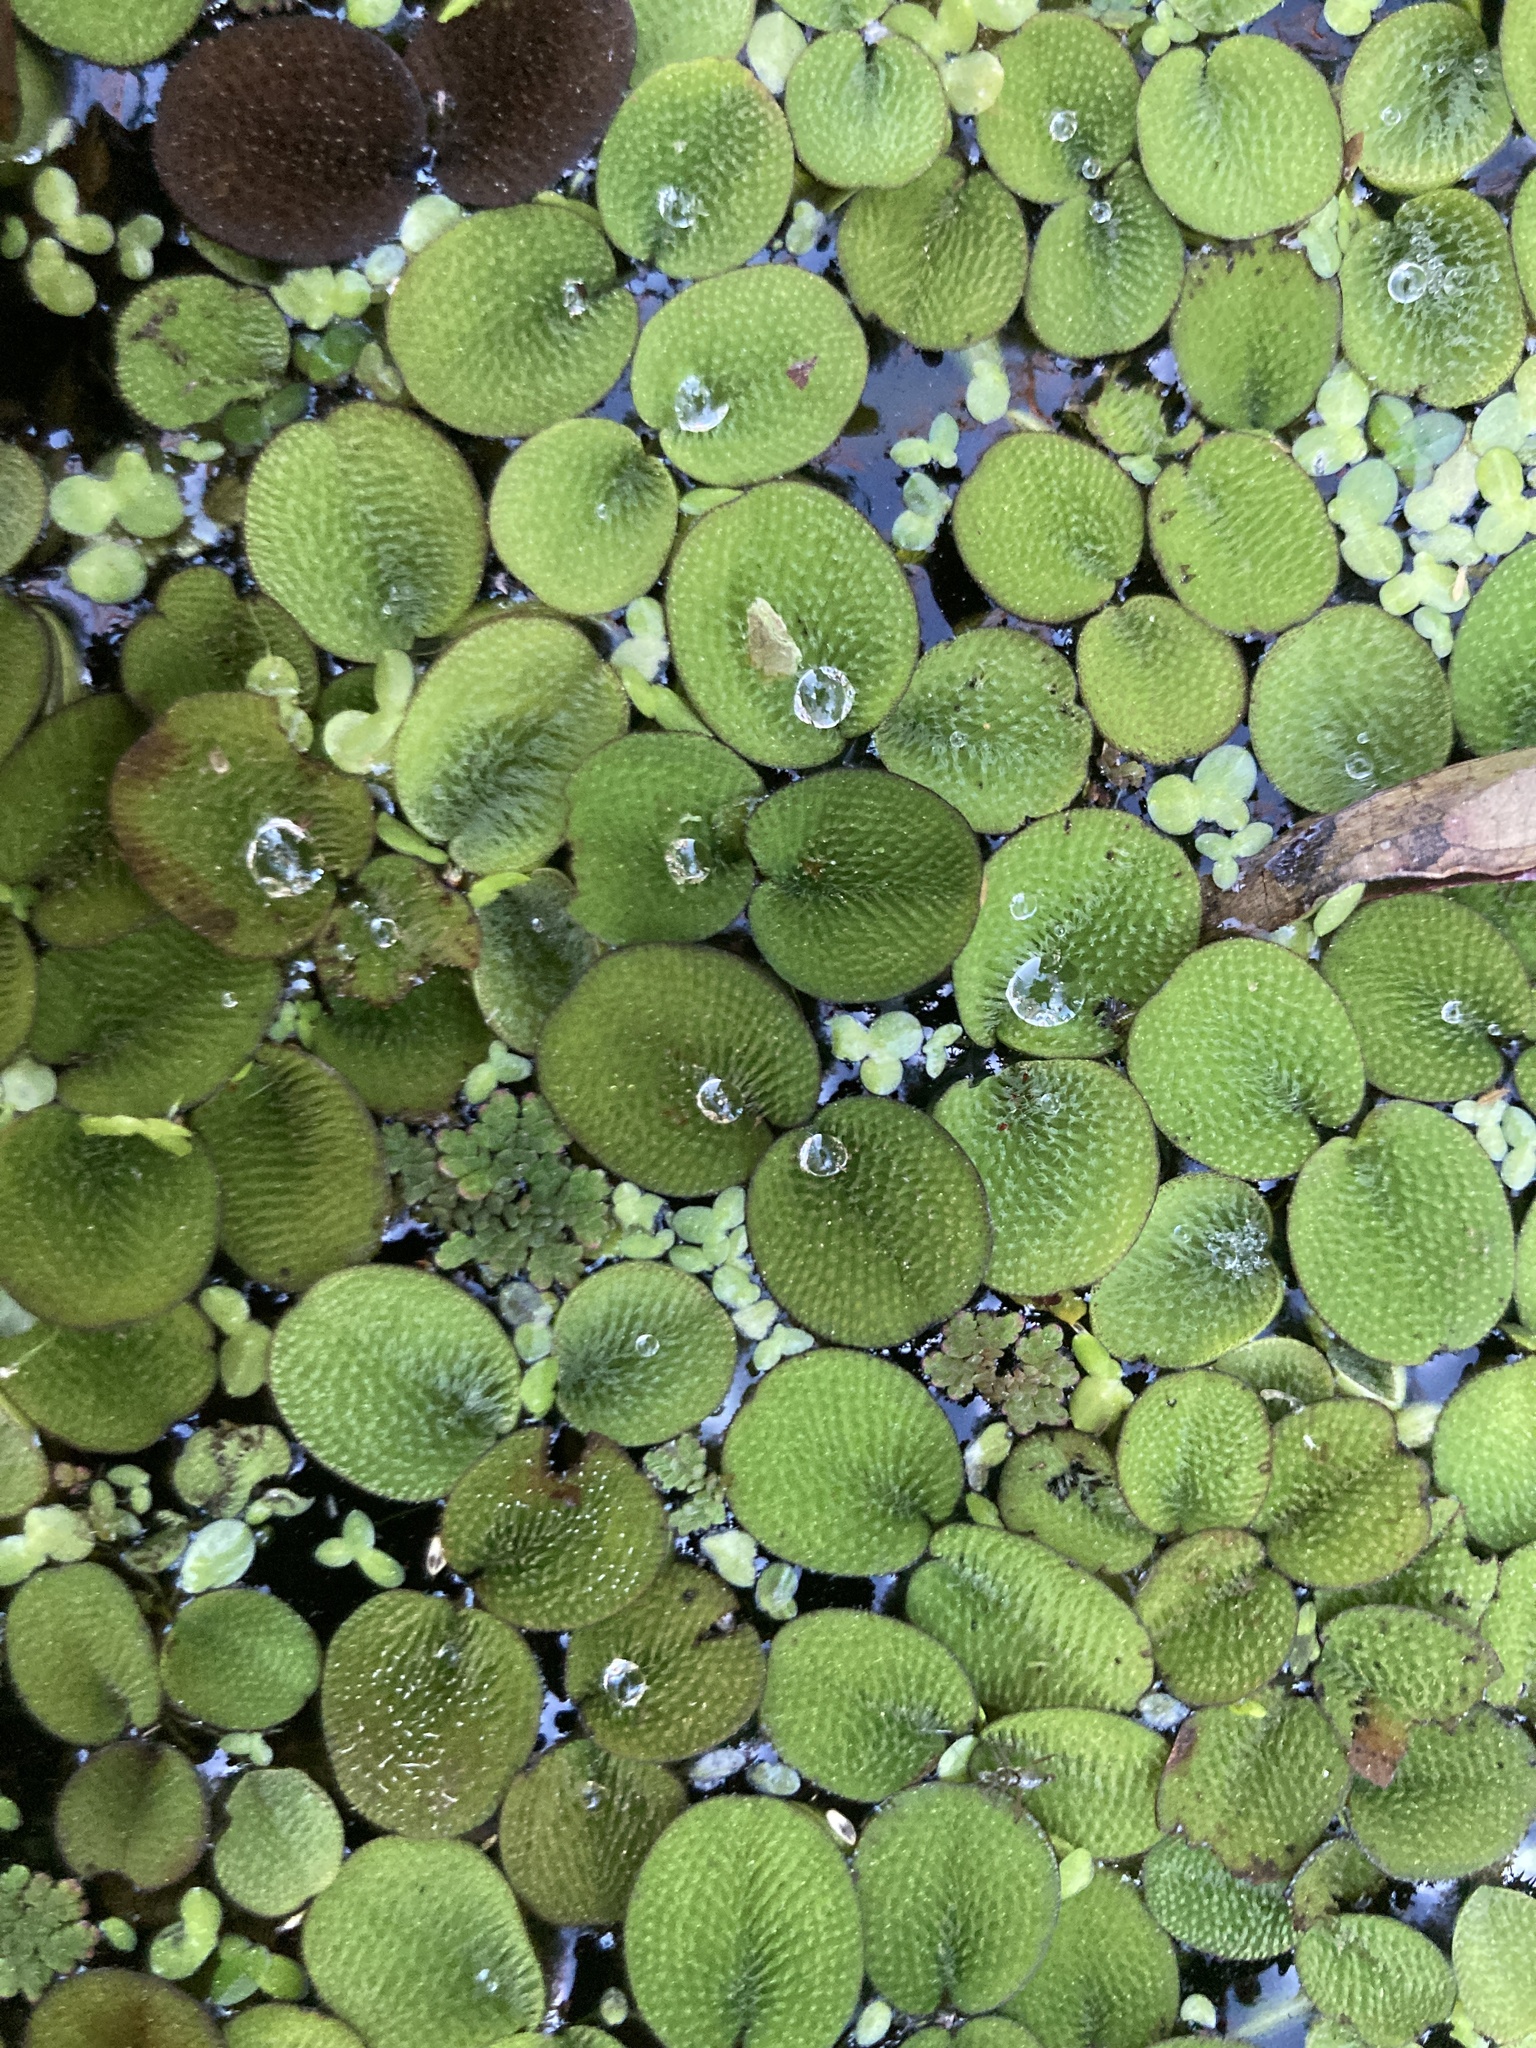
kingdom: Plantae
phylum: Tracheophyta
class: Polypodiopsida
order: Salviniales
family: Salviniaceae
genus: Salvinia
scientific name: Salvinia minima
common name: Water spangles
